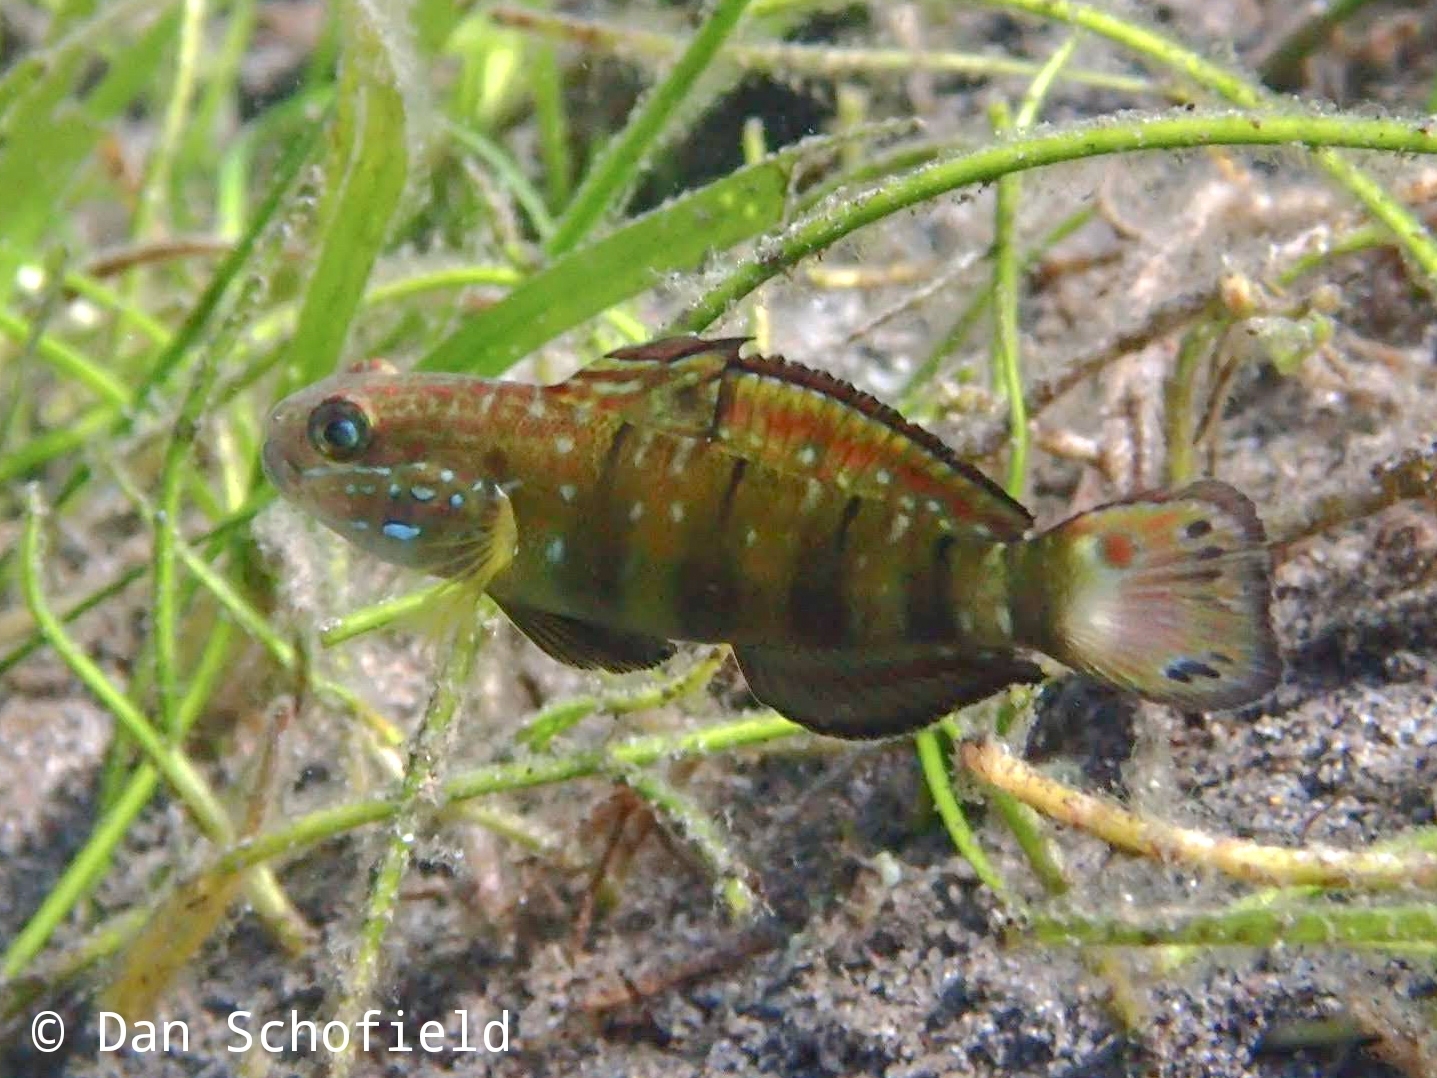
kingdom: Animalia
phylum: Chordata
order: Perciformes
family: Gobiidae
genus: Amblygobius
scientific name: Amblygobius phalaena
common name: Banded goby
